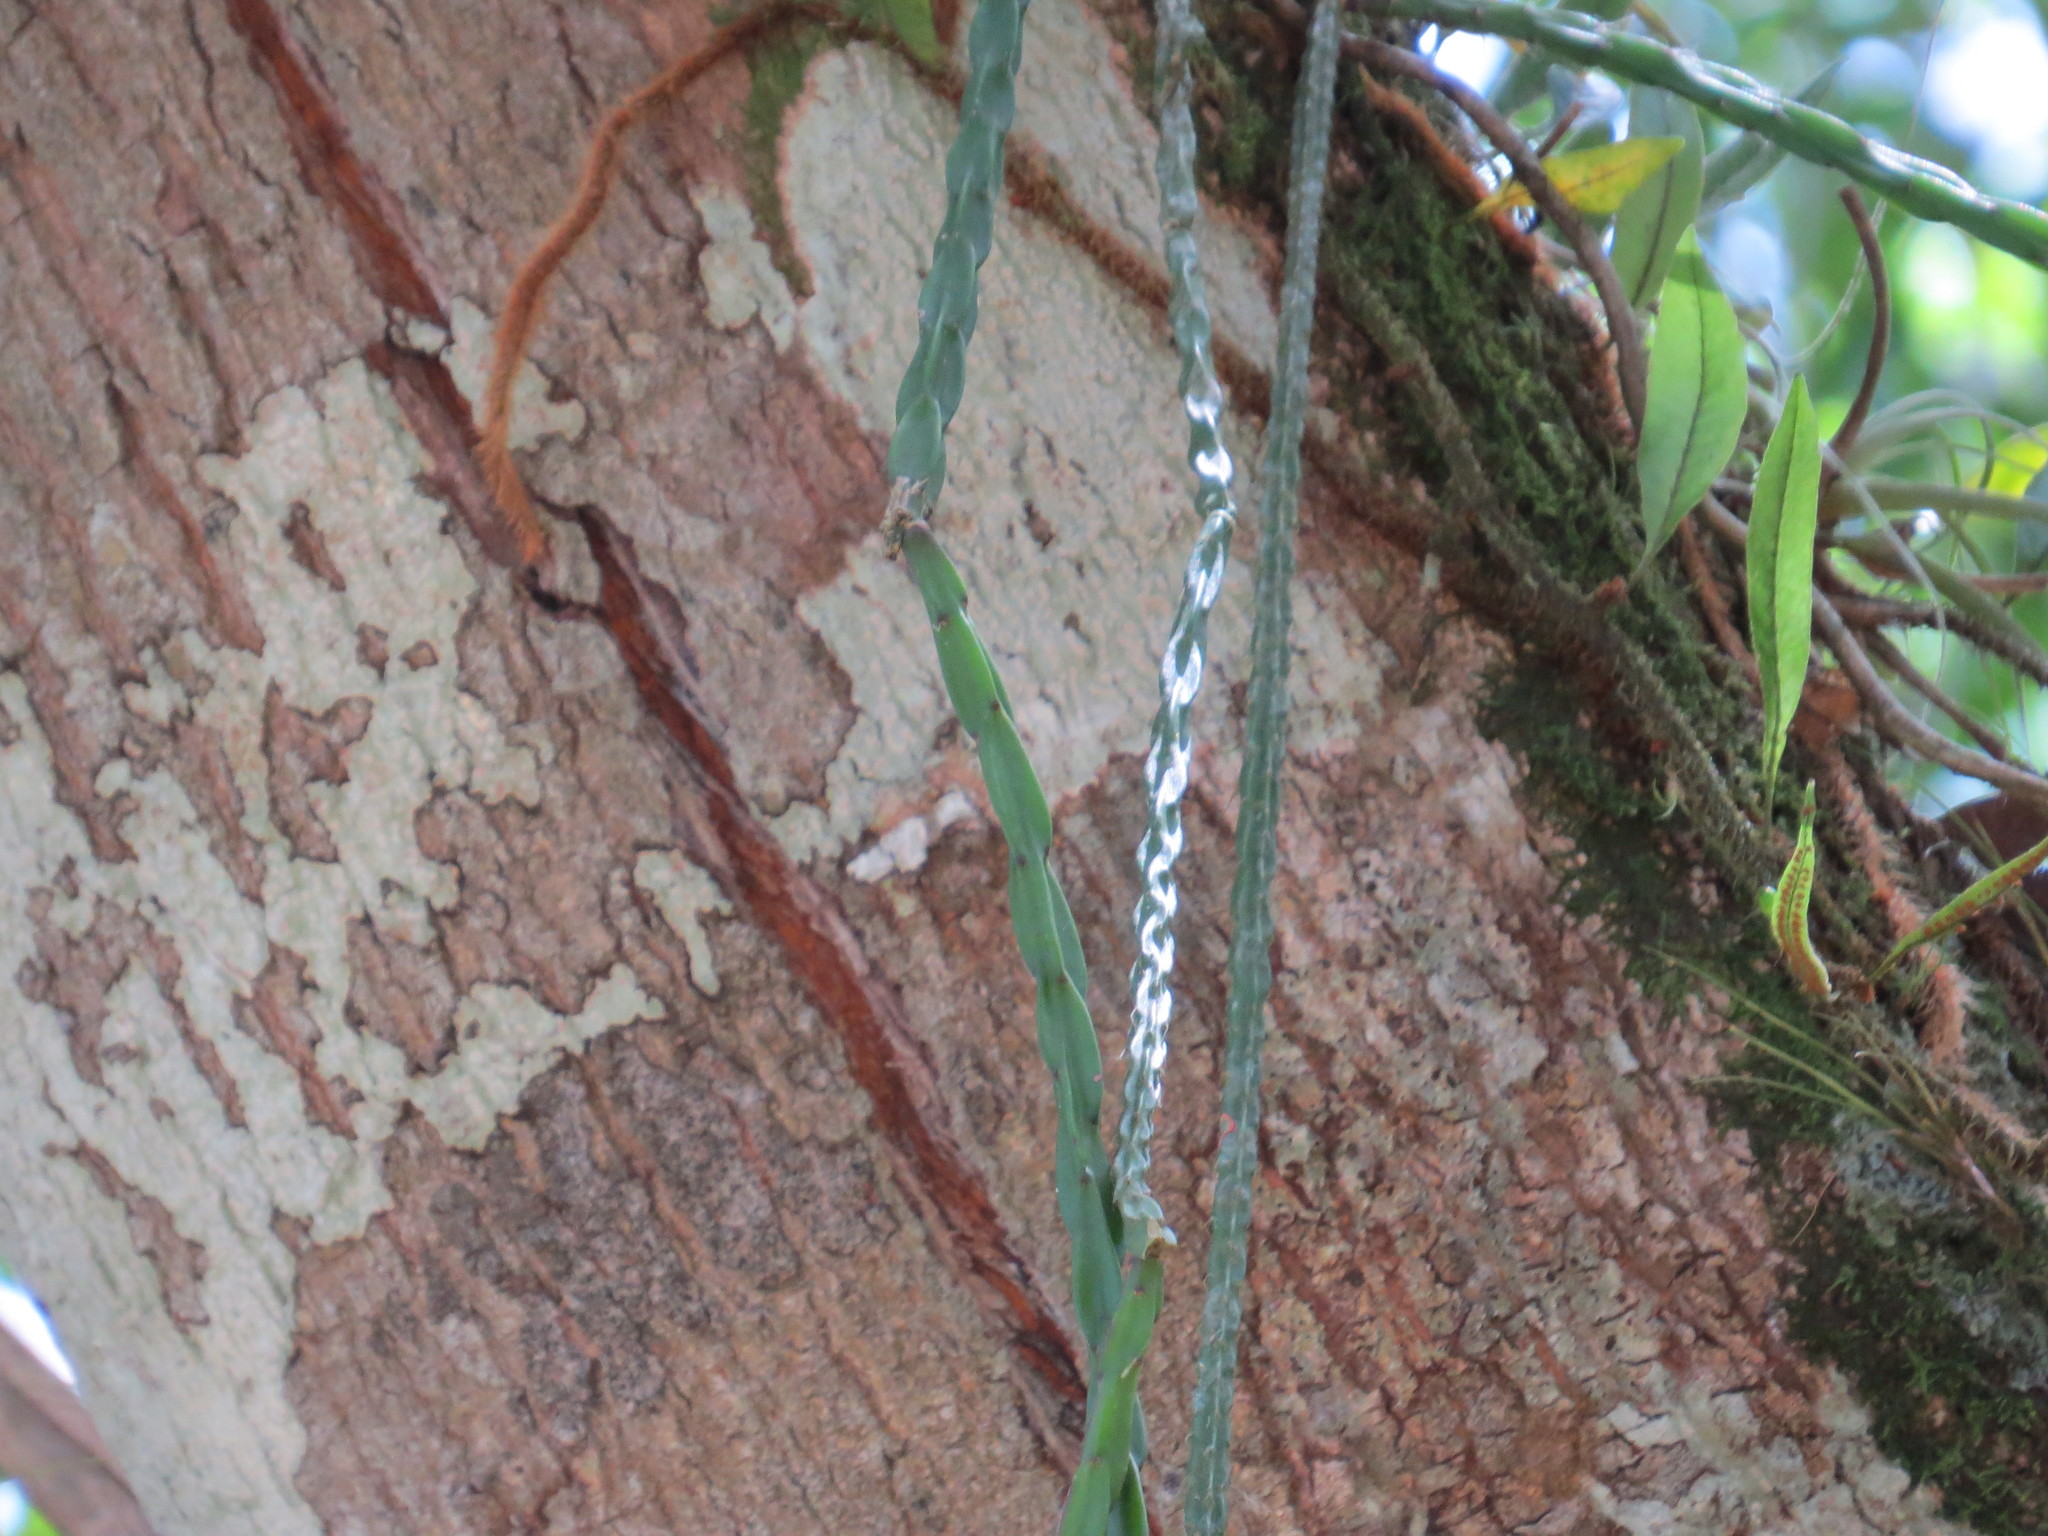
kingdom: Plantae
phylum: Tracheophyta
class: Magnoliopsida
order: Caryophyllales
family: Cactaceae
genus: Rhipsalis
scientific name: Rhipsalis pacheco-leonis
